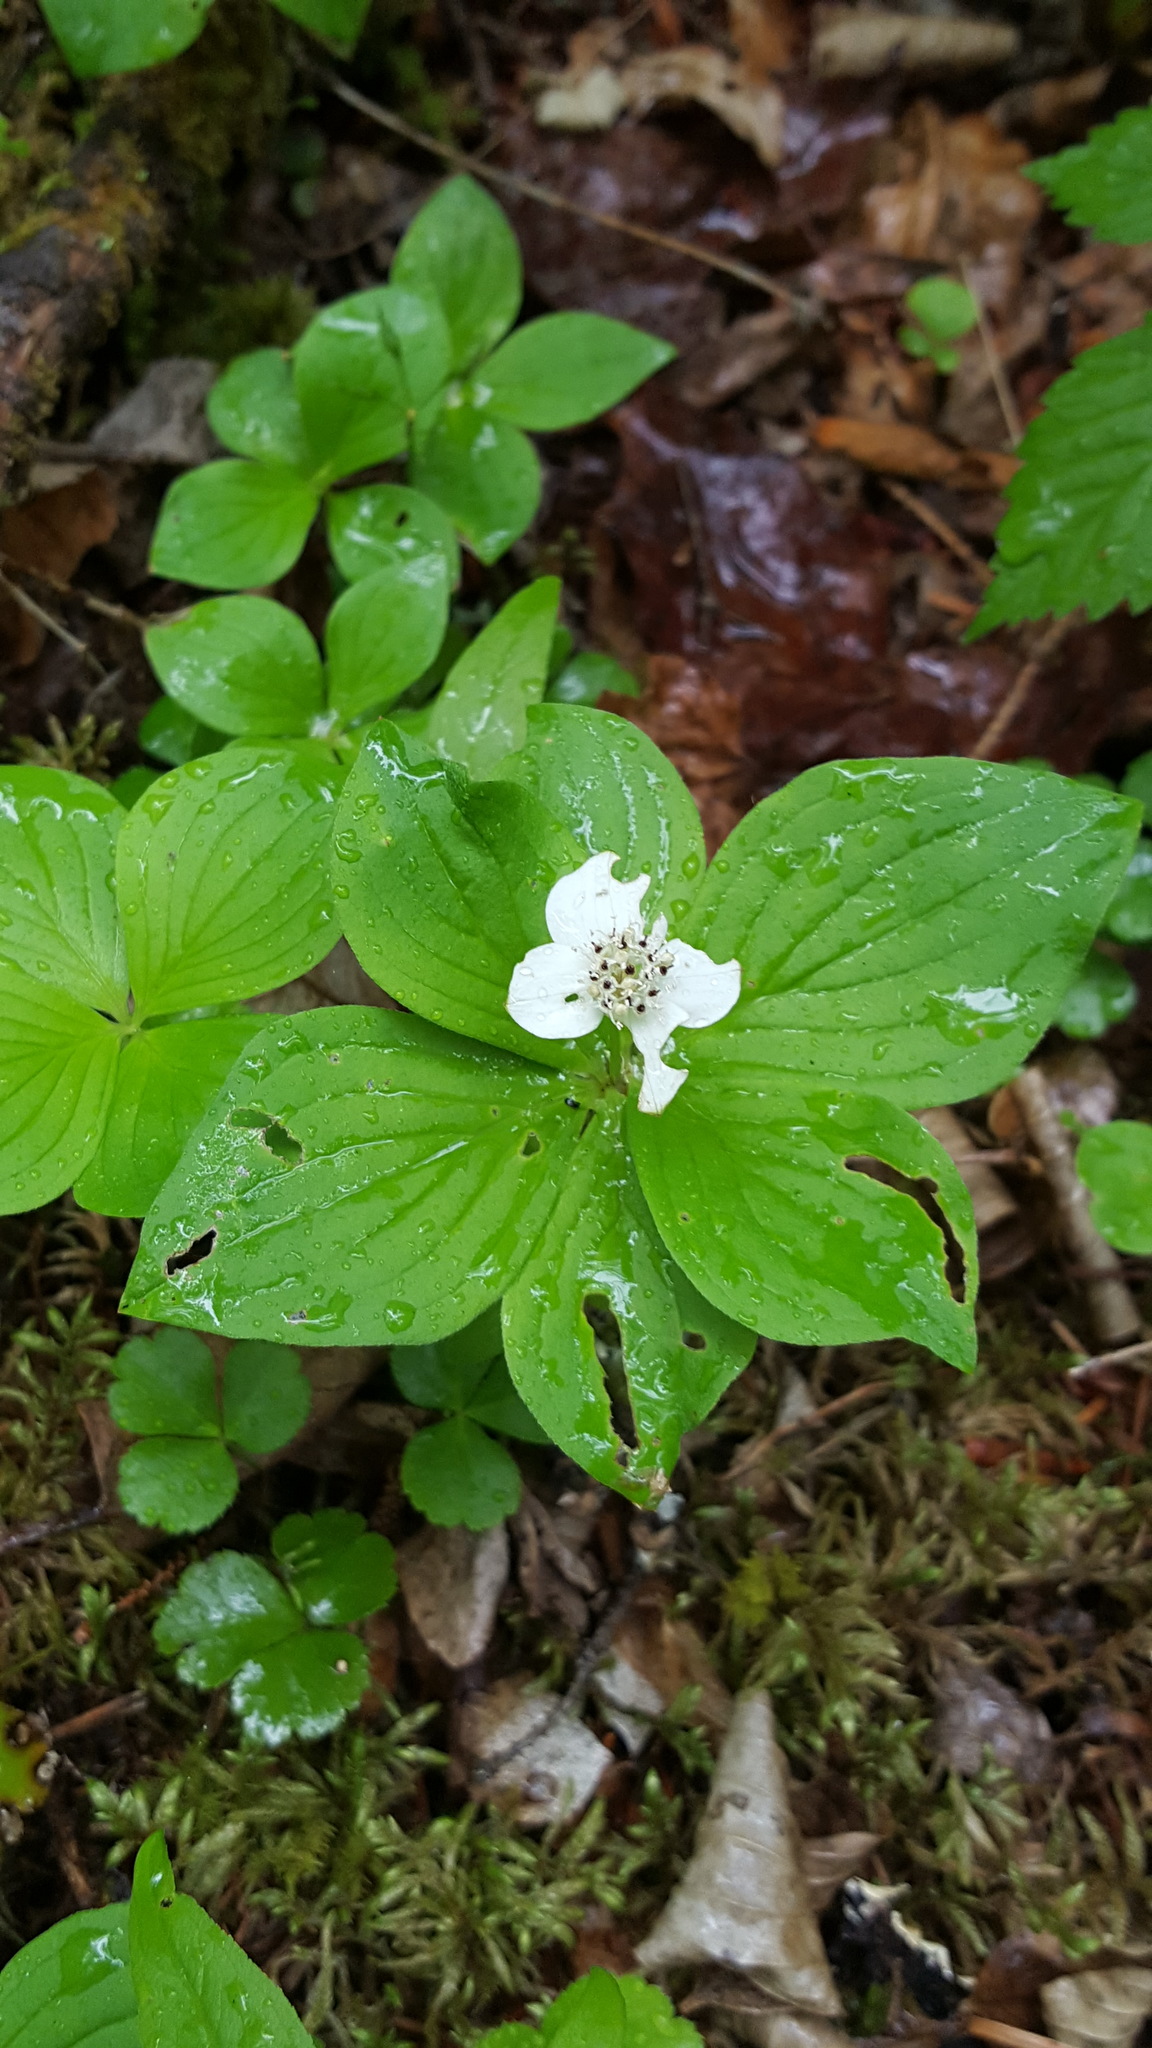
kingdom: Plantae
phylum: Tracheophyta
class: Magnoliopsida
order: Cornales
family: Cornaceae
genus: Cornus
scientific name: Cornus canadensis
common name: Creeping dogwood
